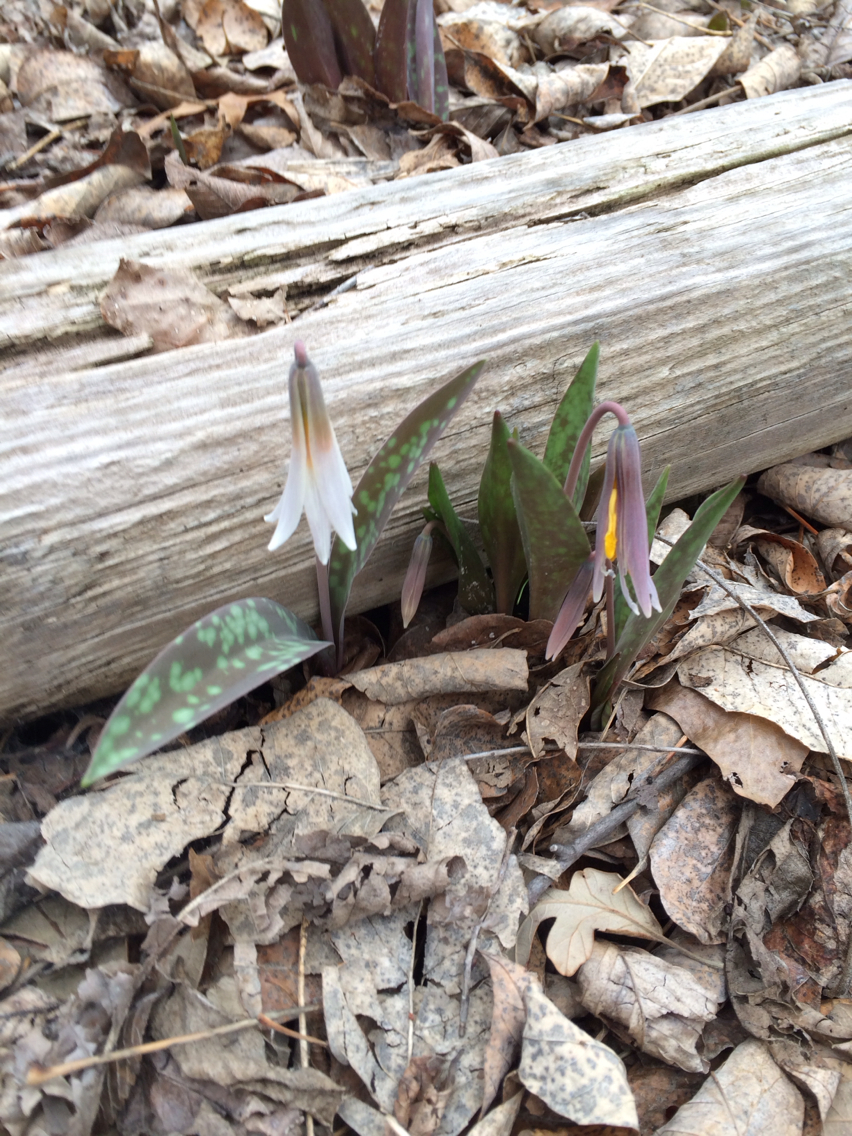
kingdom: Plantae
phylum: Tracheophyta
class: Liliopsida
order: Liliales
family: Liliaceae
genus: Erythronium
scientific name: Erythronium albidum
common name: White trout-lily
